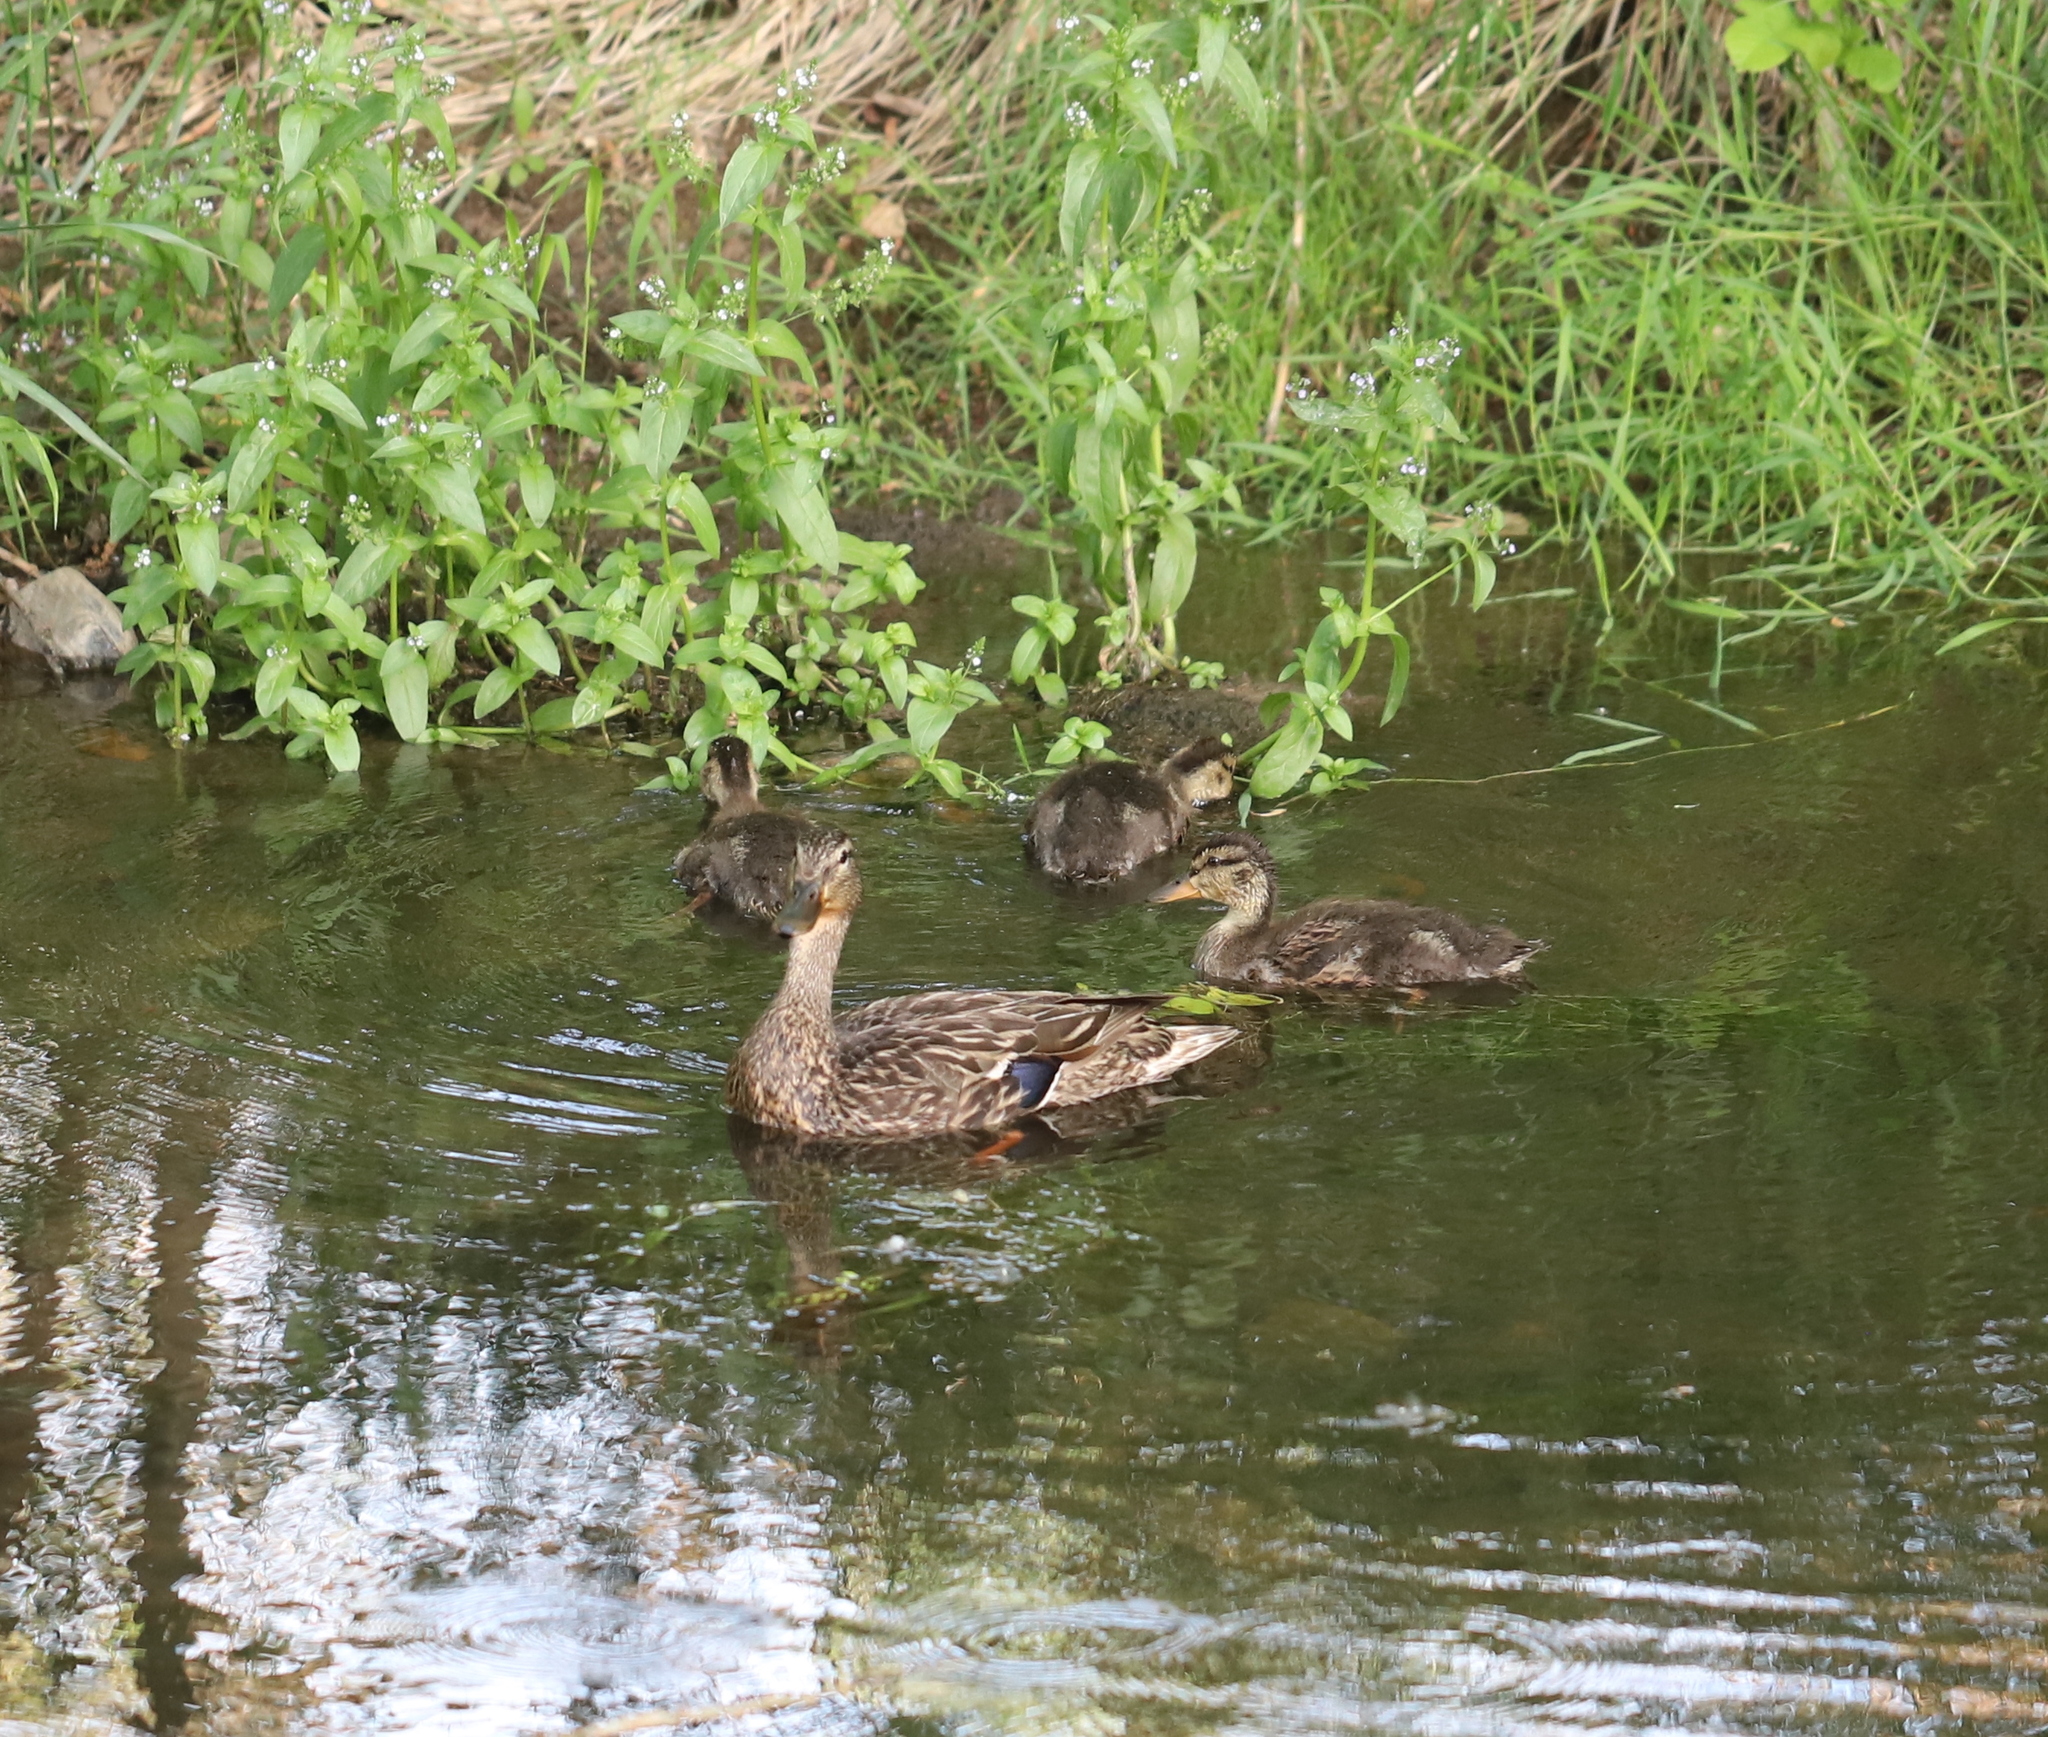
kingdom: Animalia
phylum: Chordata
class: Aves
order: Anseriformes
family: Anatidae
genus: Anas
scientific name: Anas platyrhynchos
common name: Mallard
